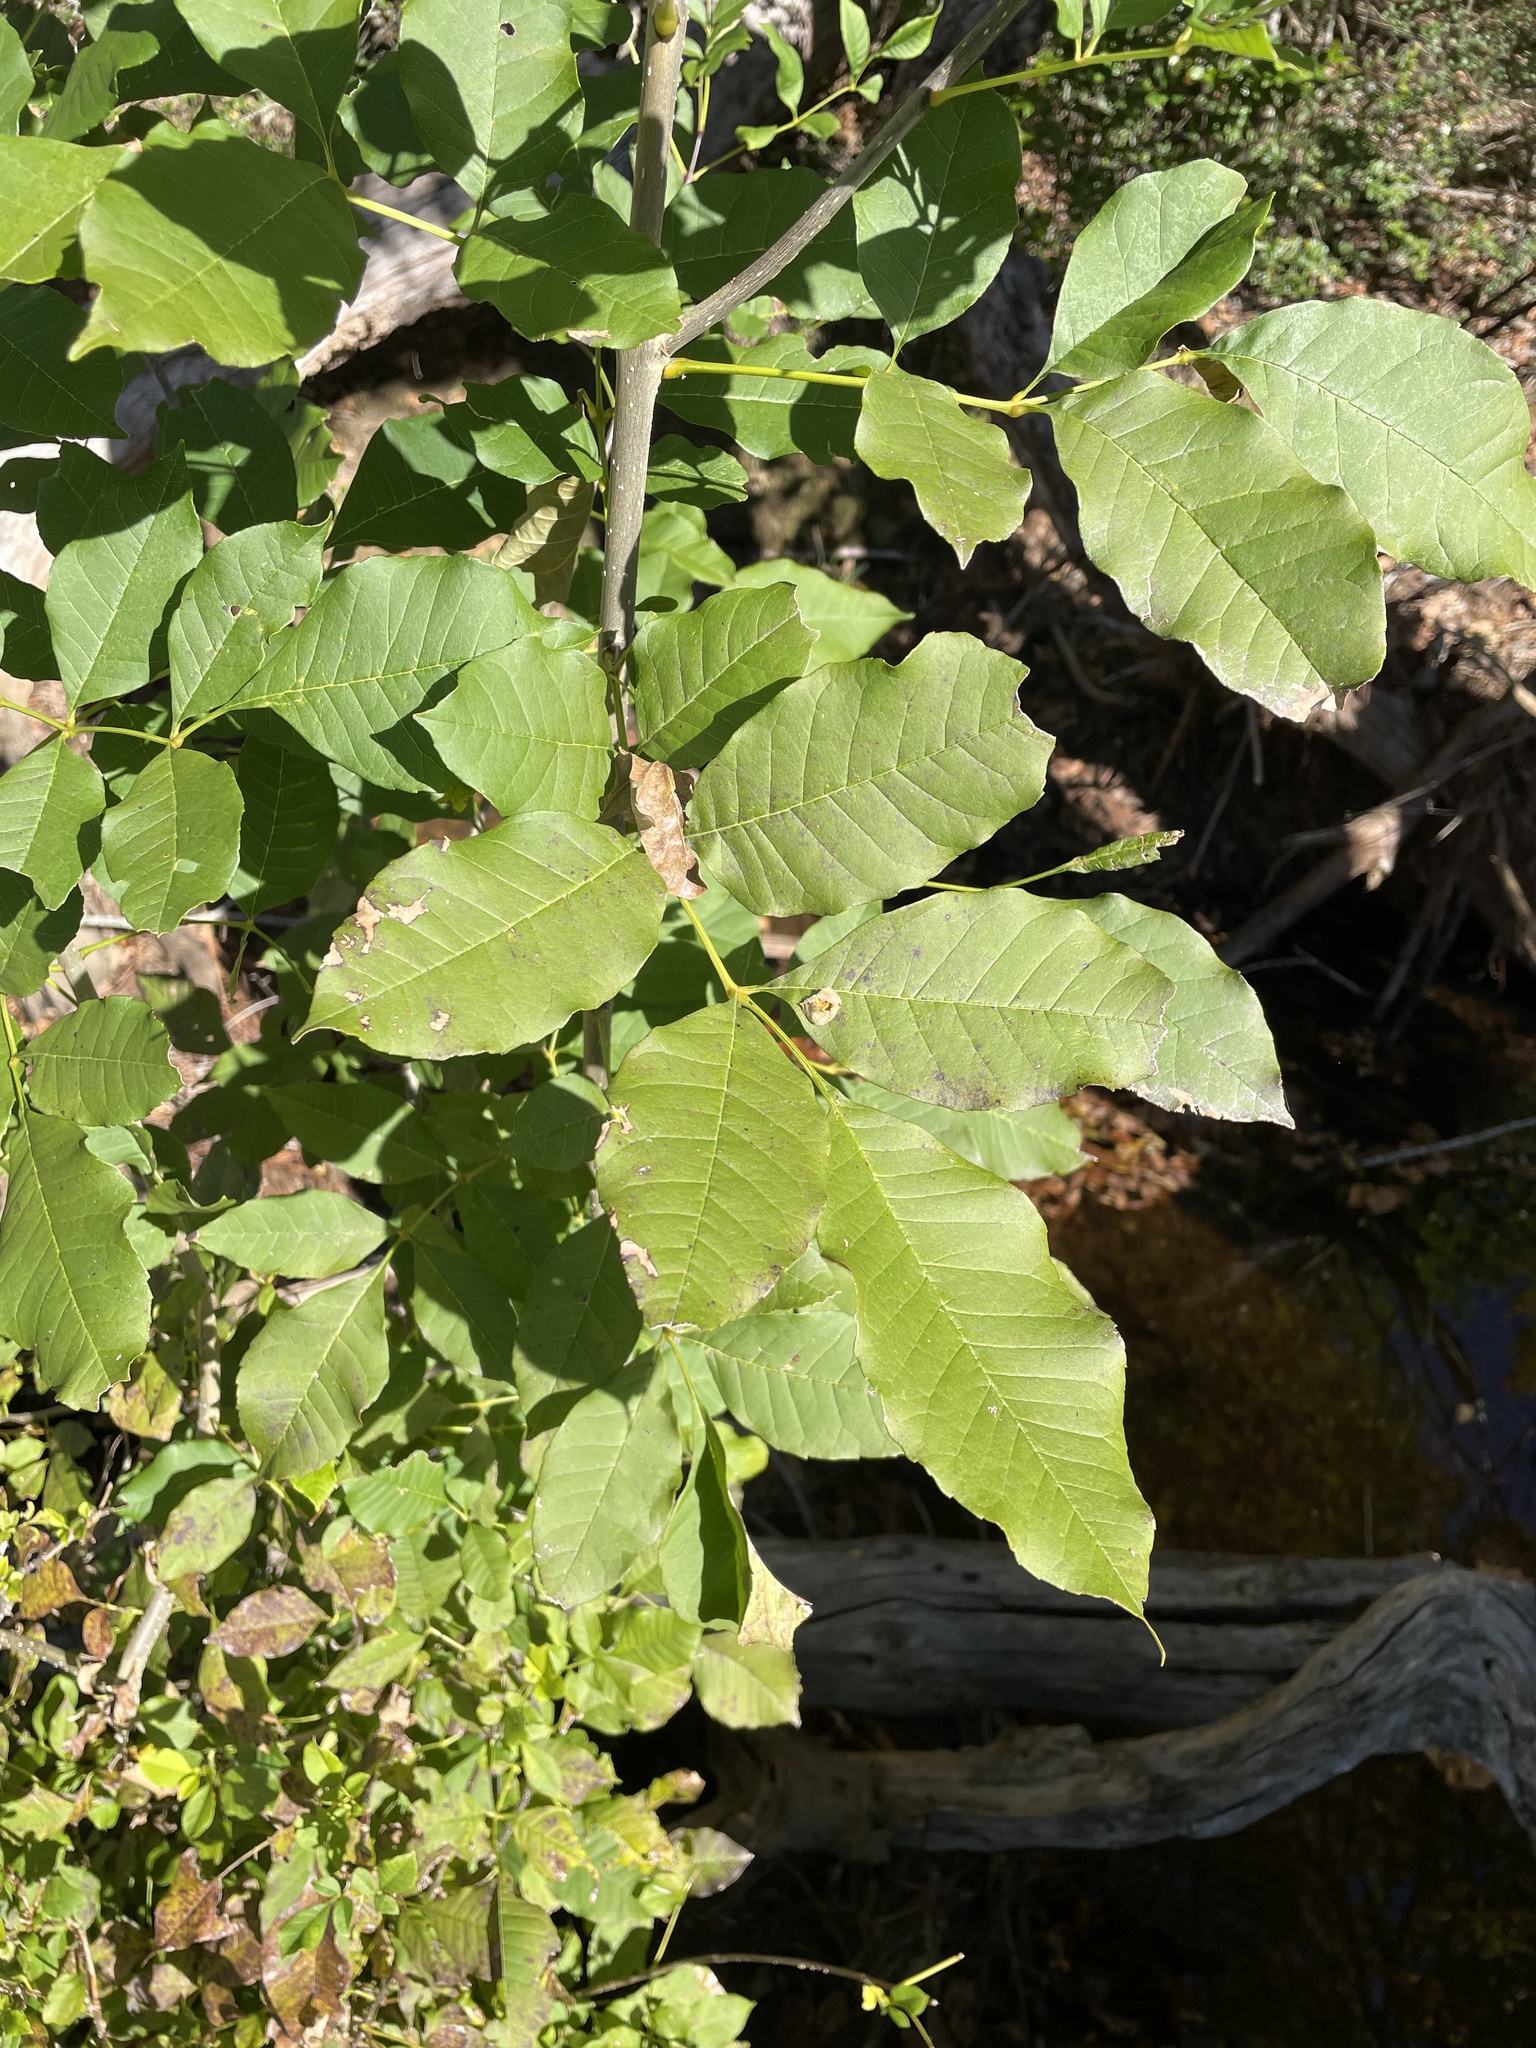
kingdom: Plantae
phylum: Tracheophyta
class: Magnoliopsida
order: Lamiales
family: Oleaceae
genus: Fraxinus
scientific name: Fraxinus pennsylvanica
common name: Green ash
